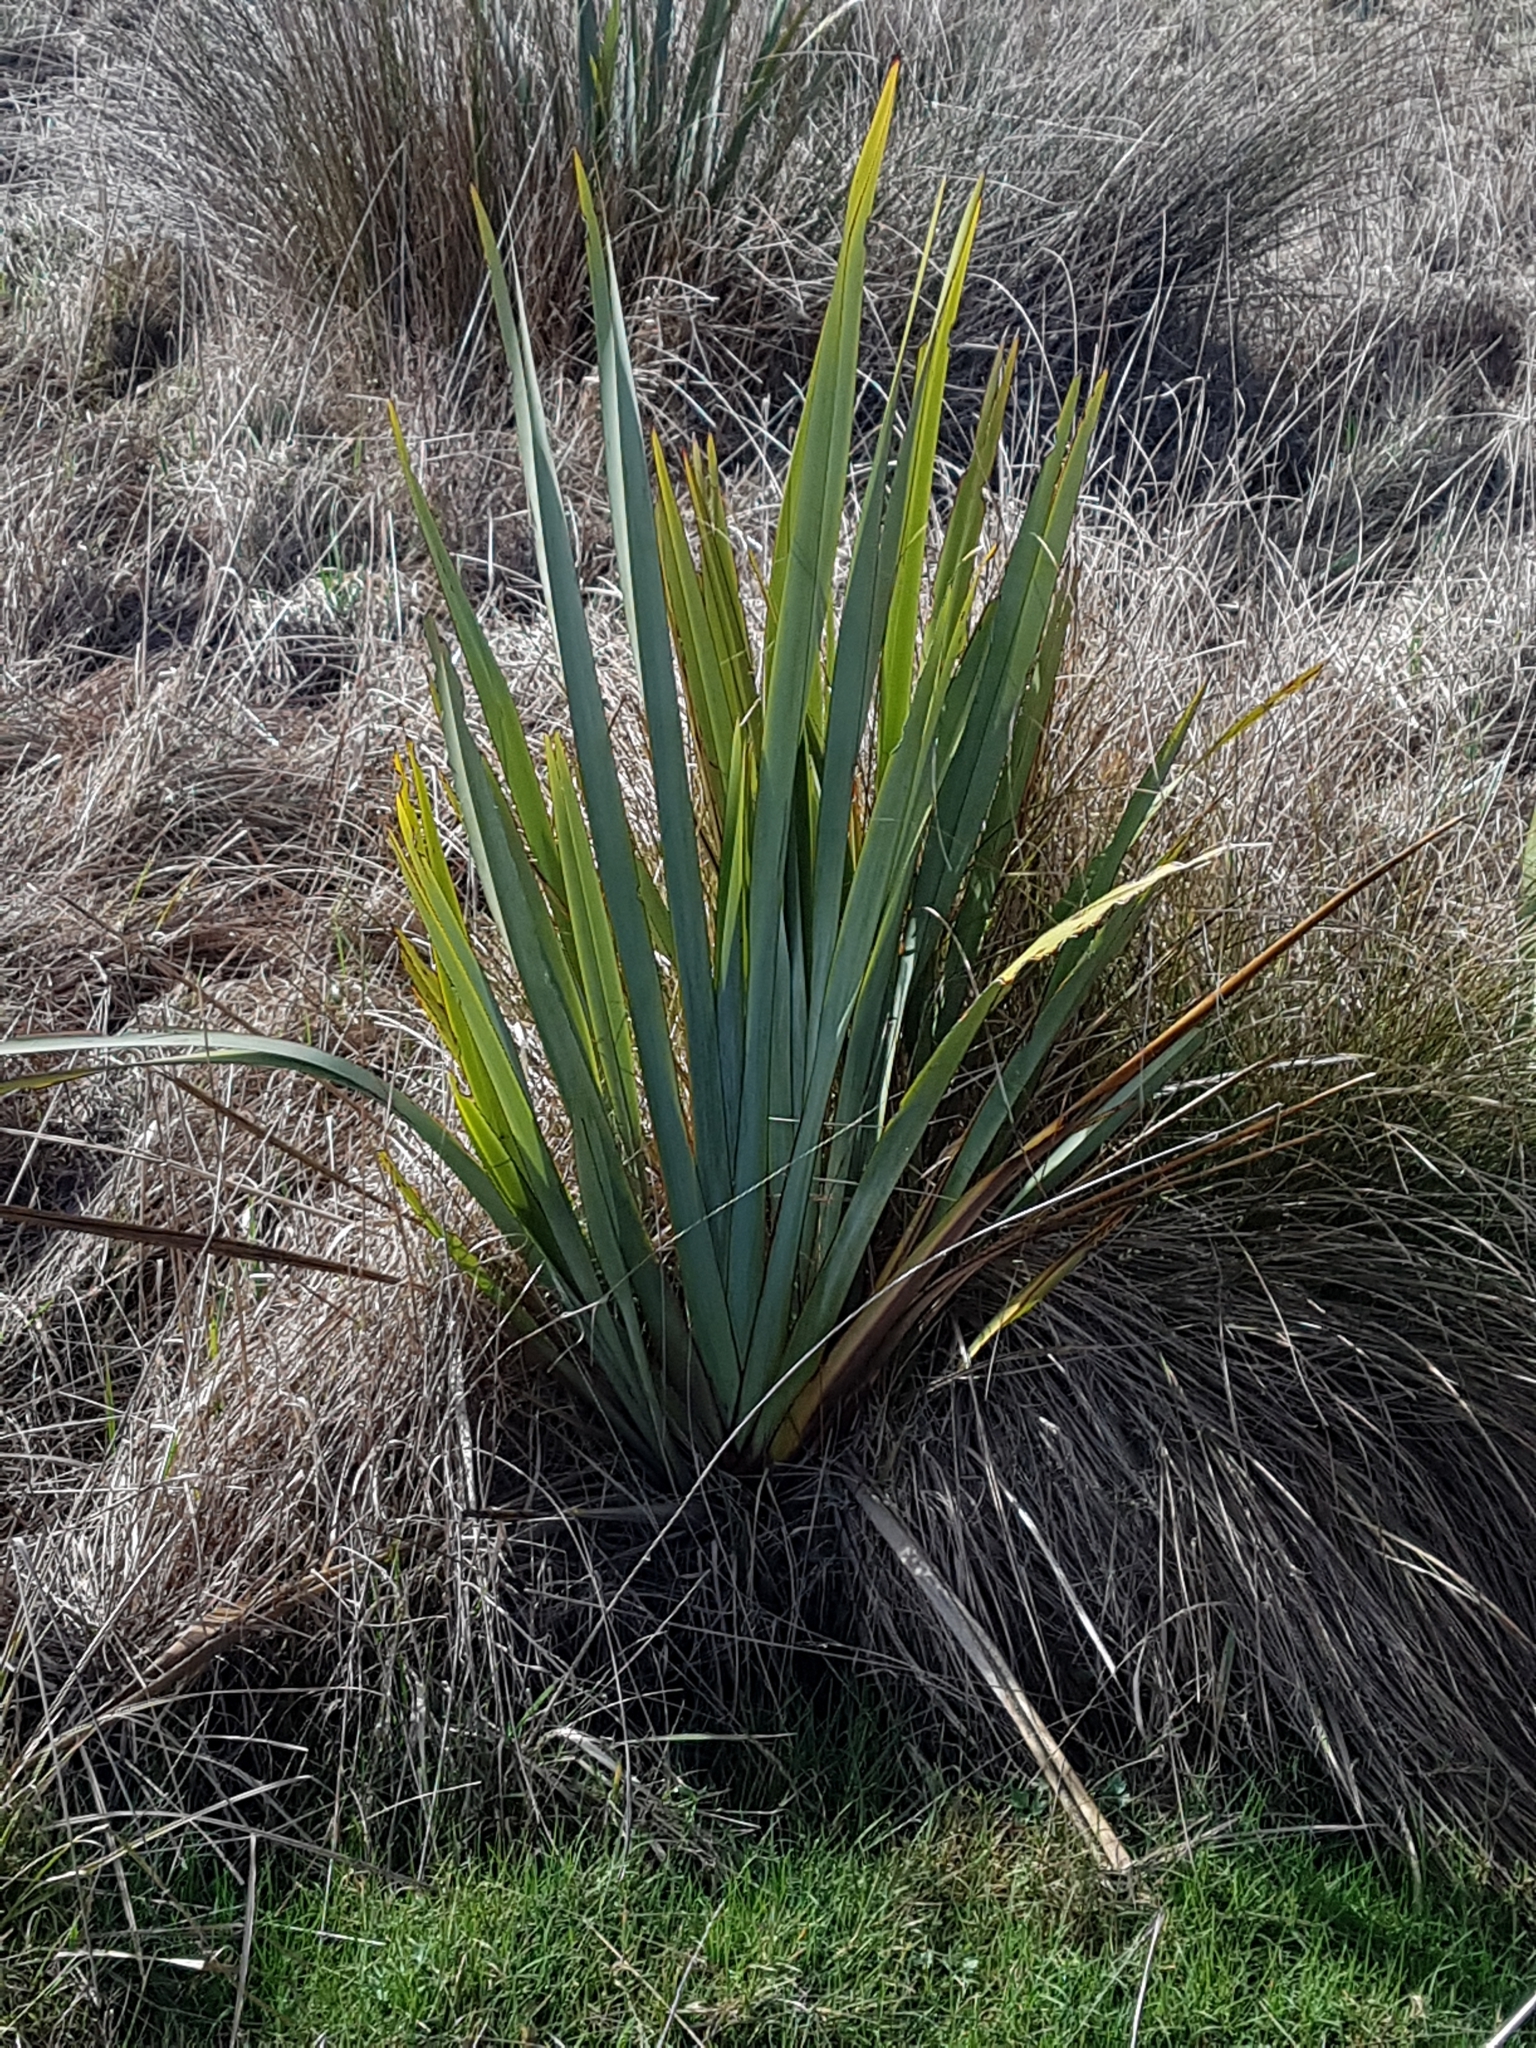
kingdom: Plantae
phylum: Tracheophyta
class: Liliopsida
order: Asparagales
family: Asphodelaceae
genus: Phormium
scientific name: Phormium tenax
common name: New zealand flax
